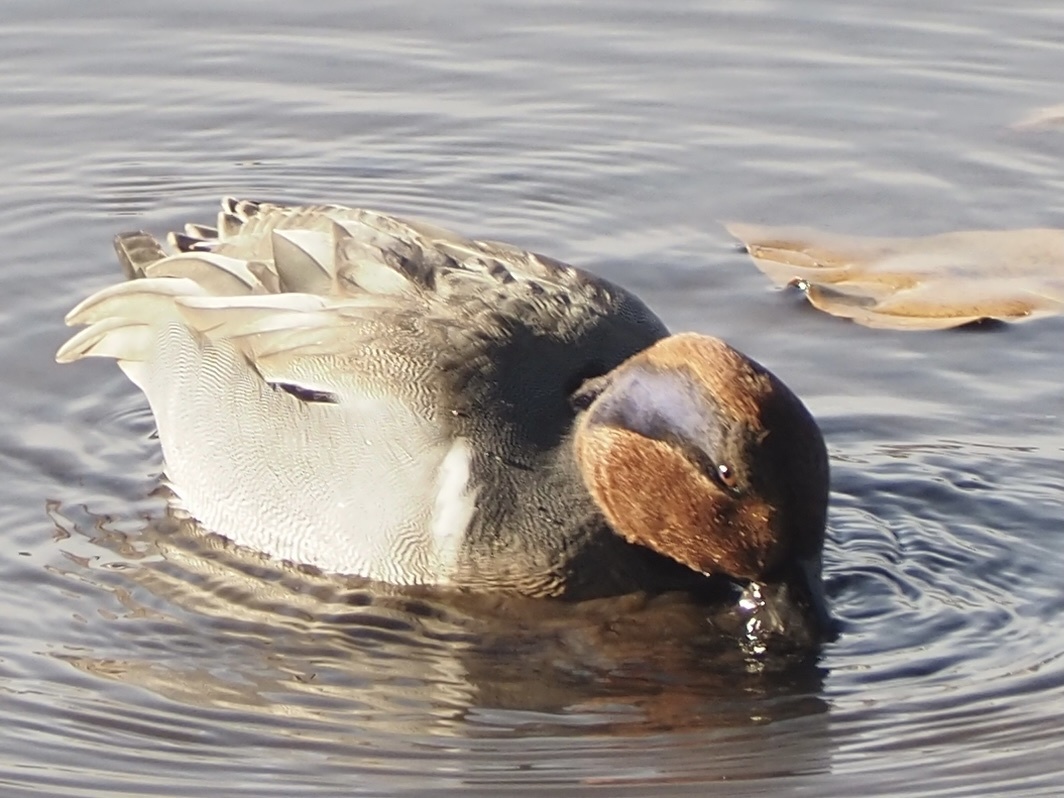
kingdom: Animalia
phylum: Chordata
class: Aves
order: Anseriformes
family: Anatidae
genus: Anas
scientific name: Anas crecca
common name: Eurasian teal
